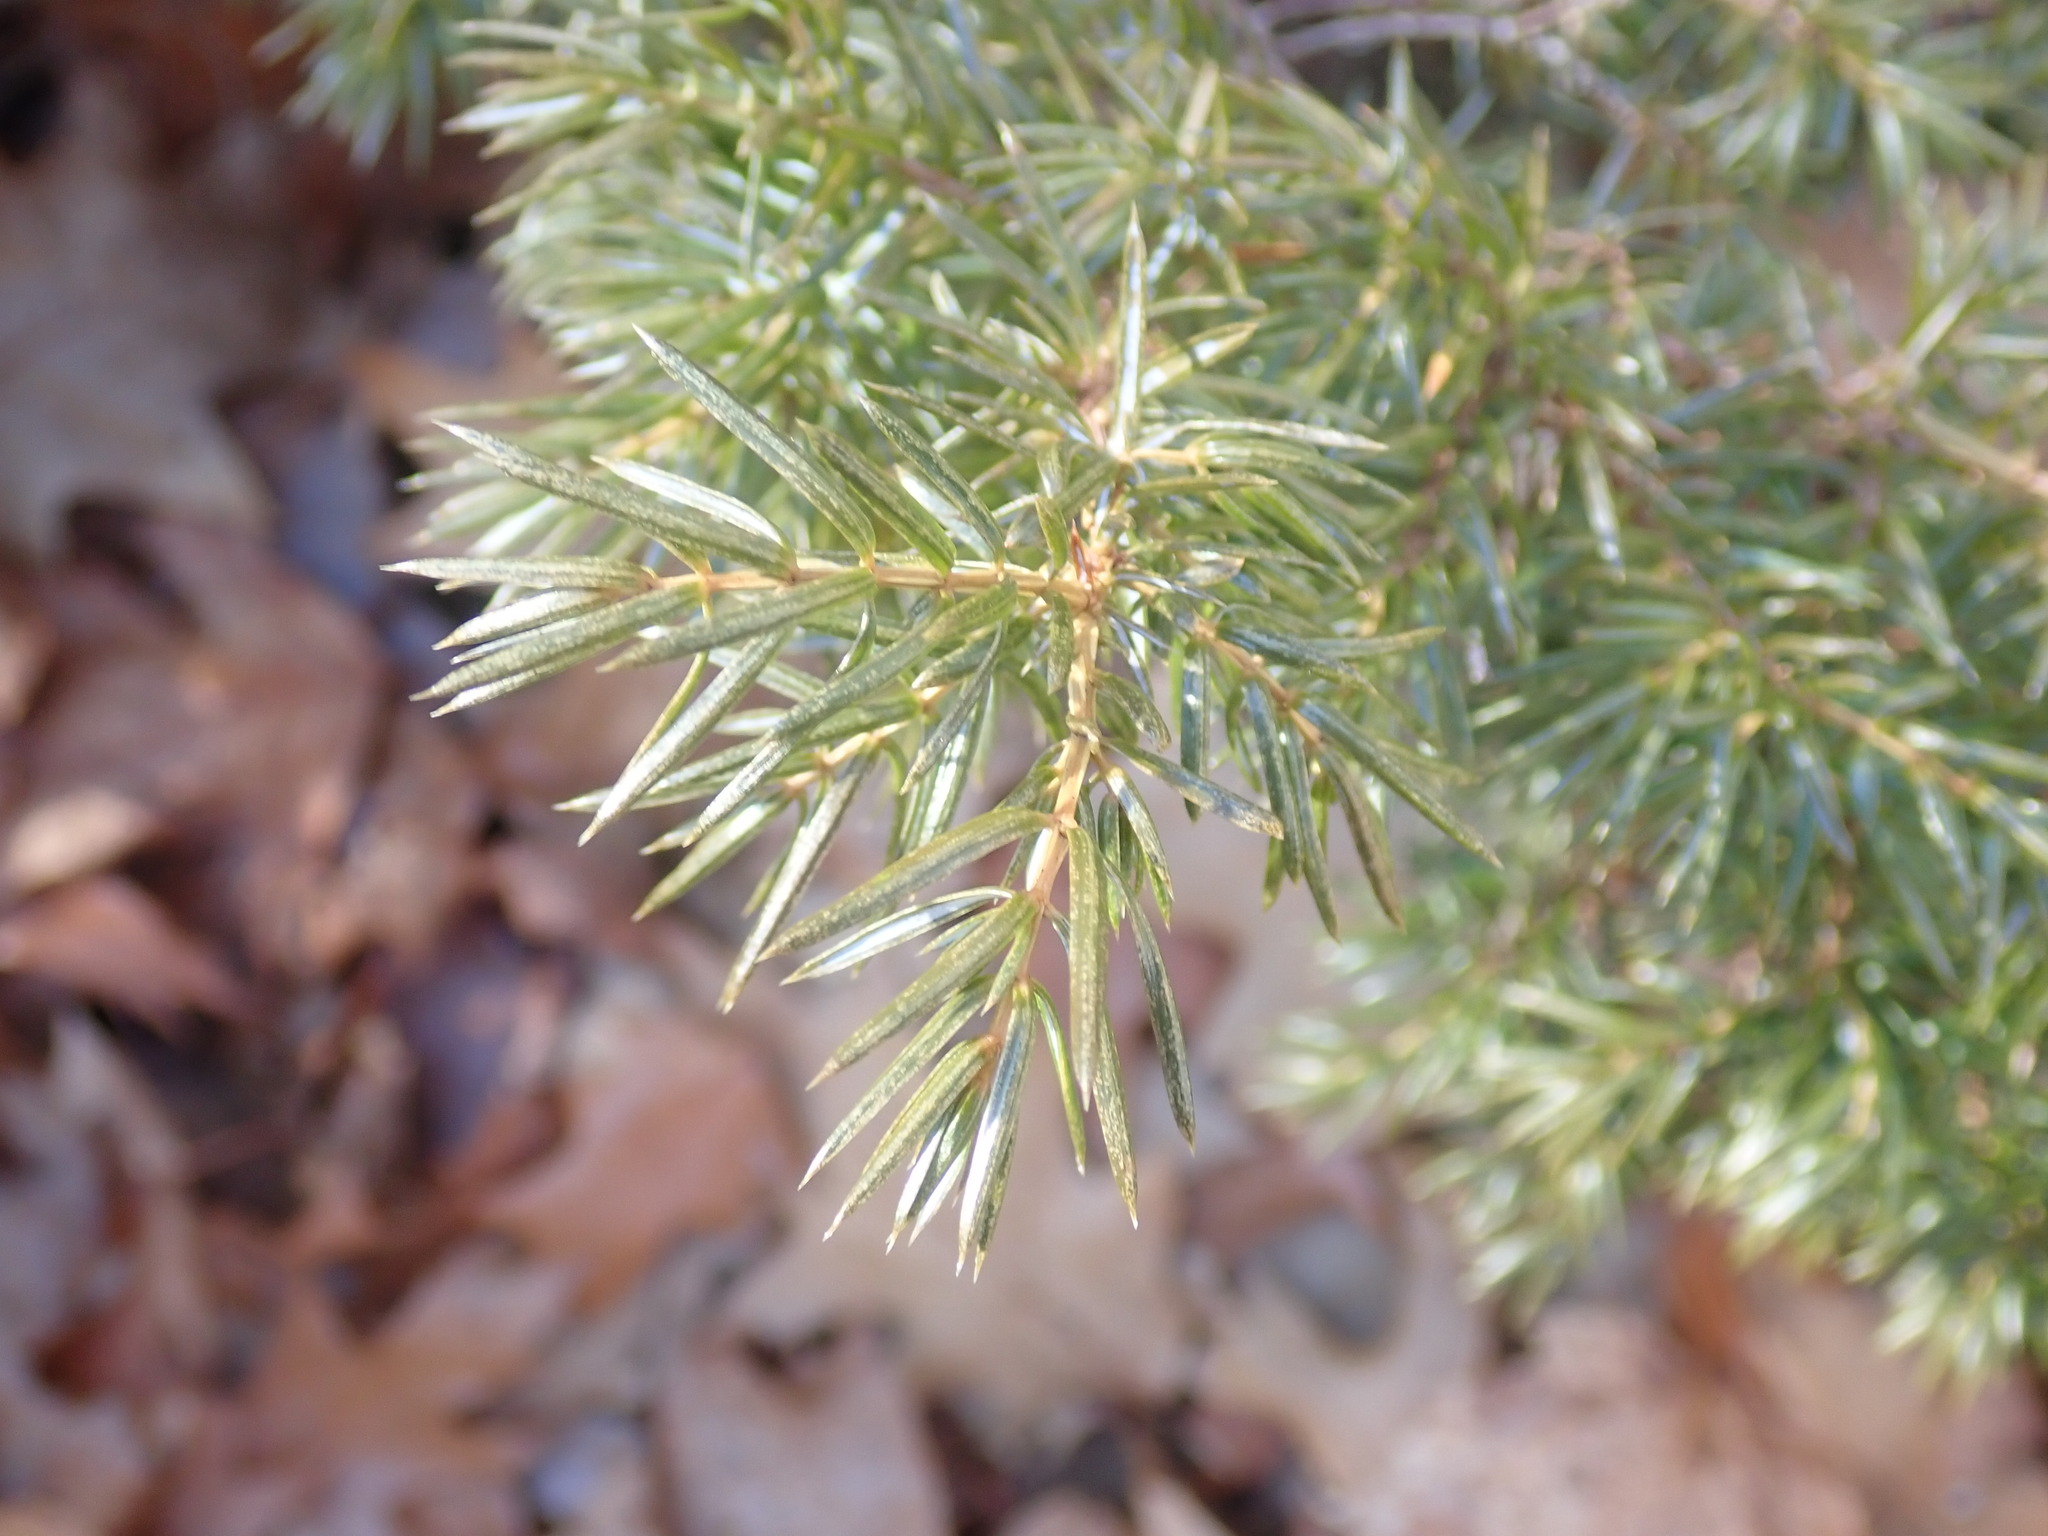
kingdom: Plantae
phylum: Tracheophyta
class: Pinopsida
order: Pinales
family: Cupressaceae
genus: Juniperus
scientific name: Juniperus communis
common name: Common juniper
